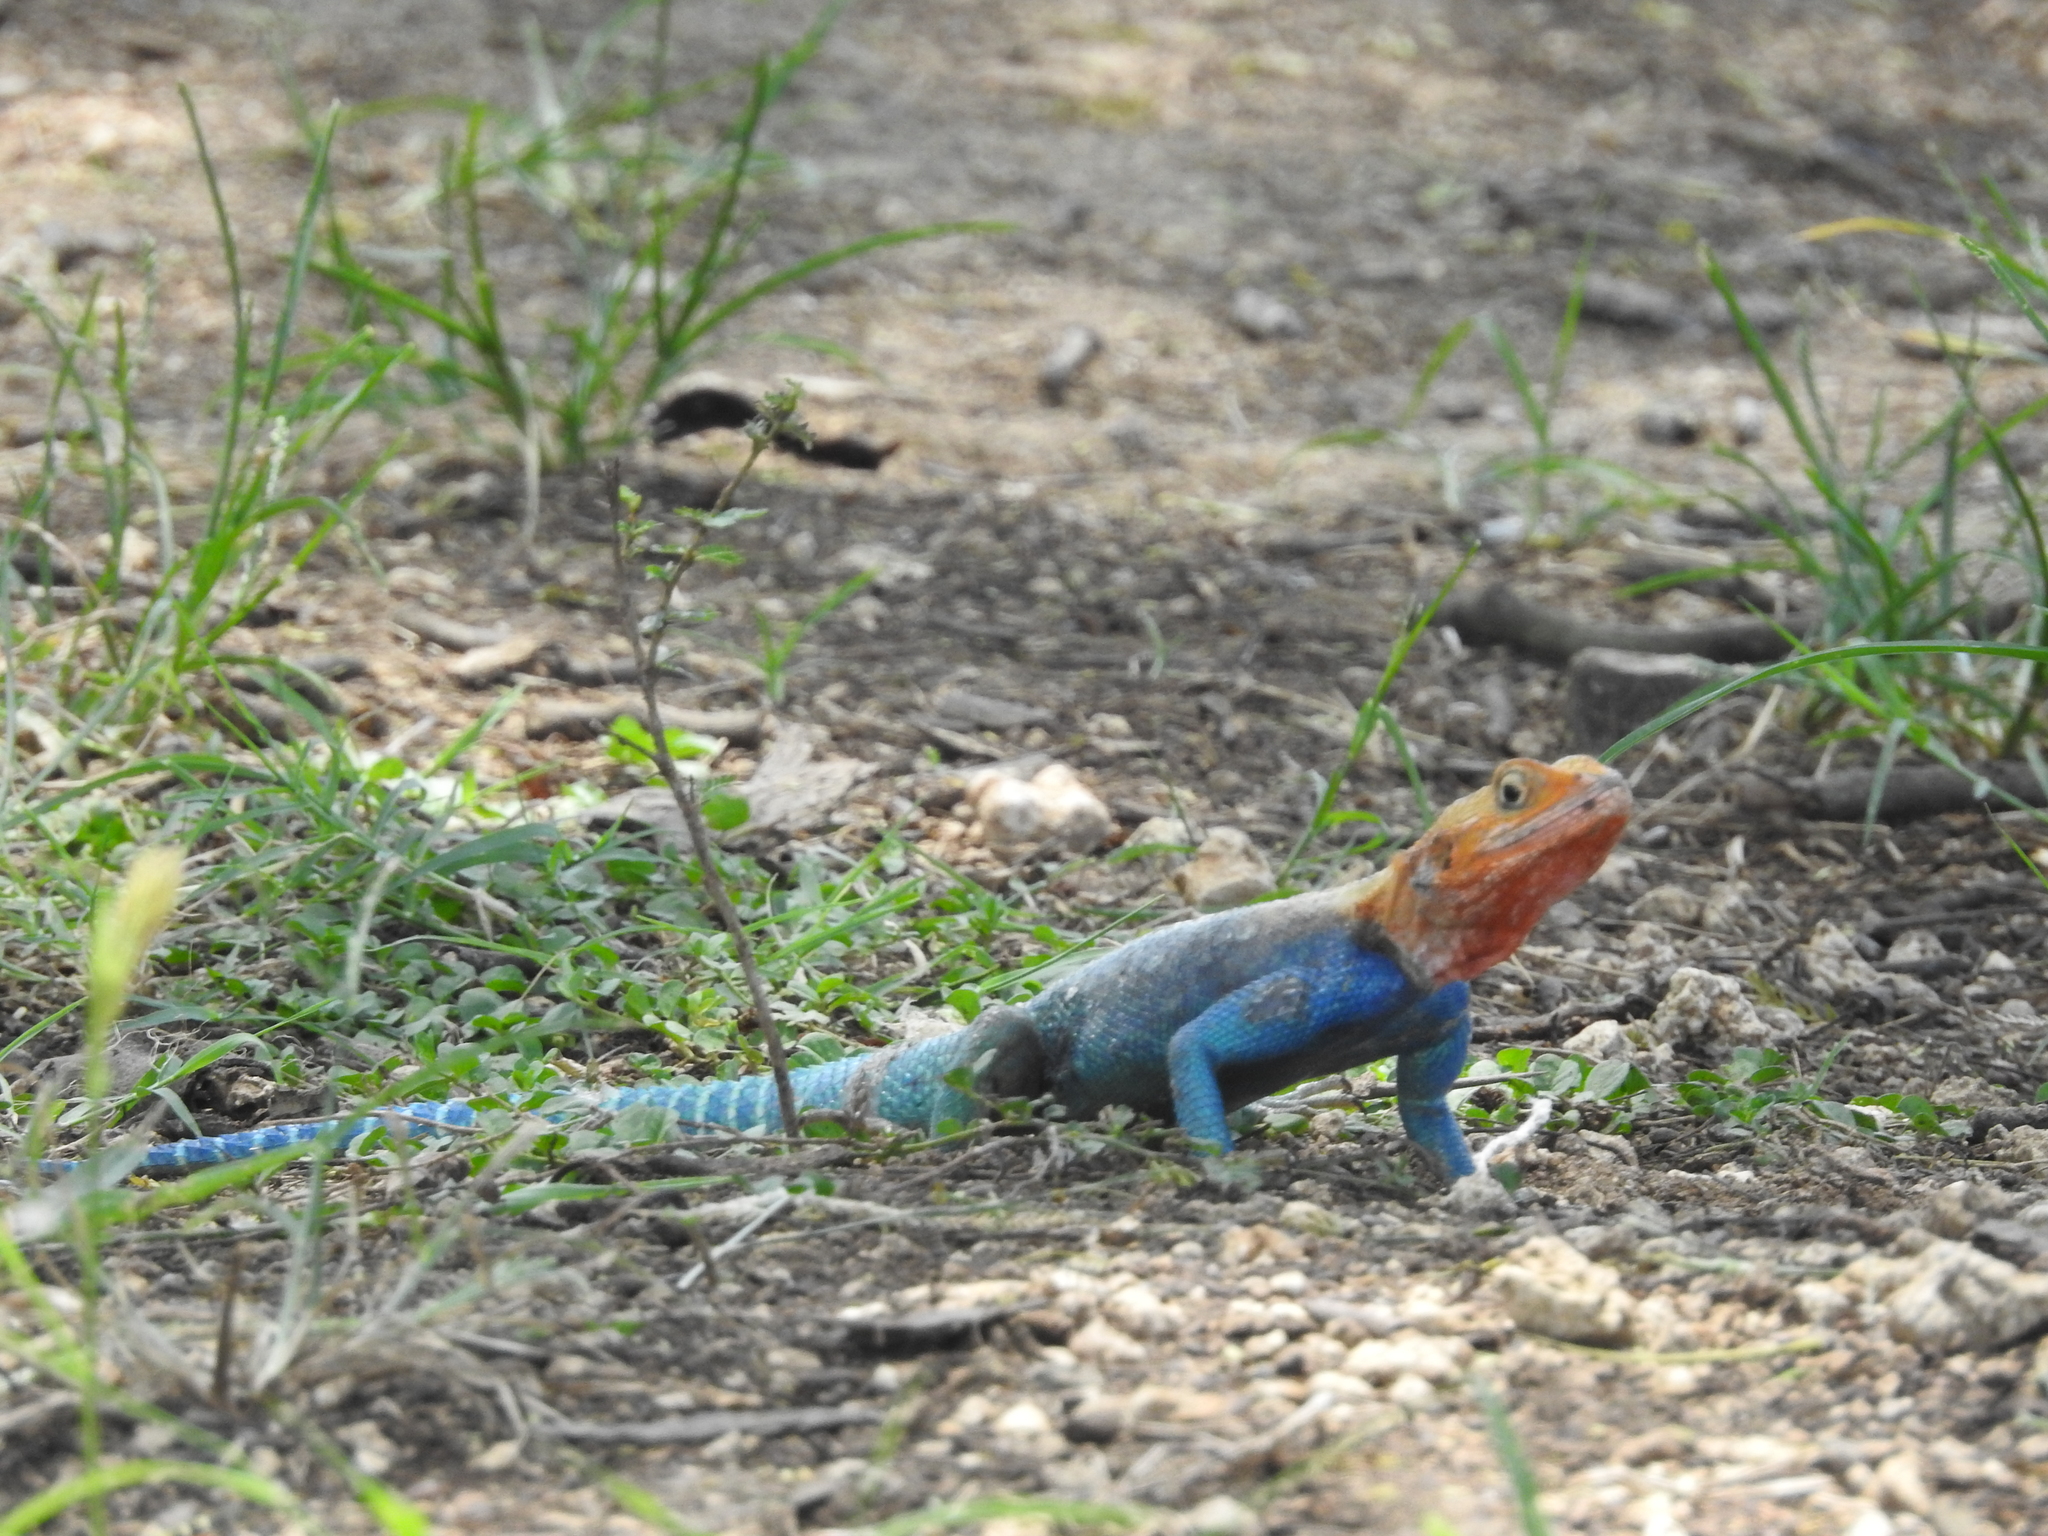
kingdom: Animalia
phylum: Chordata
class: Squamata
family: Agamidae
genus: Agama
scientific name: Agama lionotus
